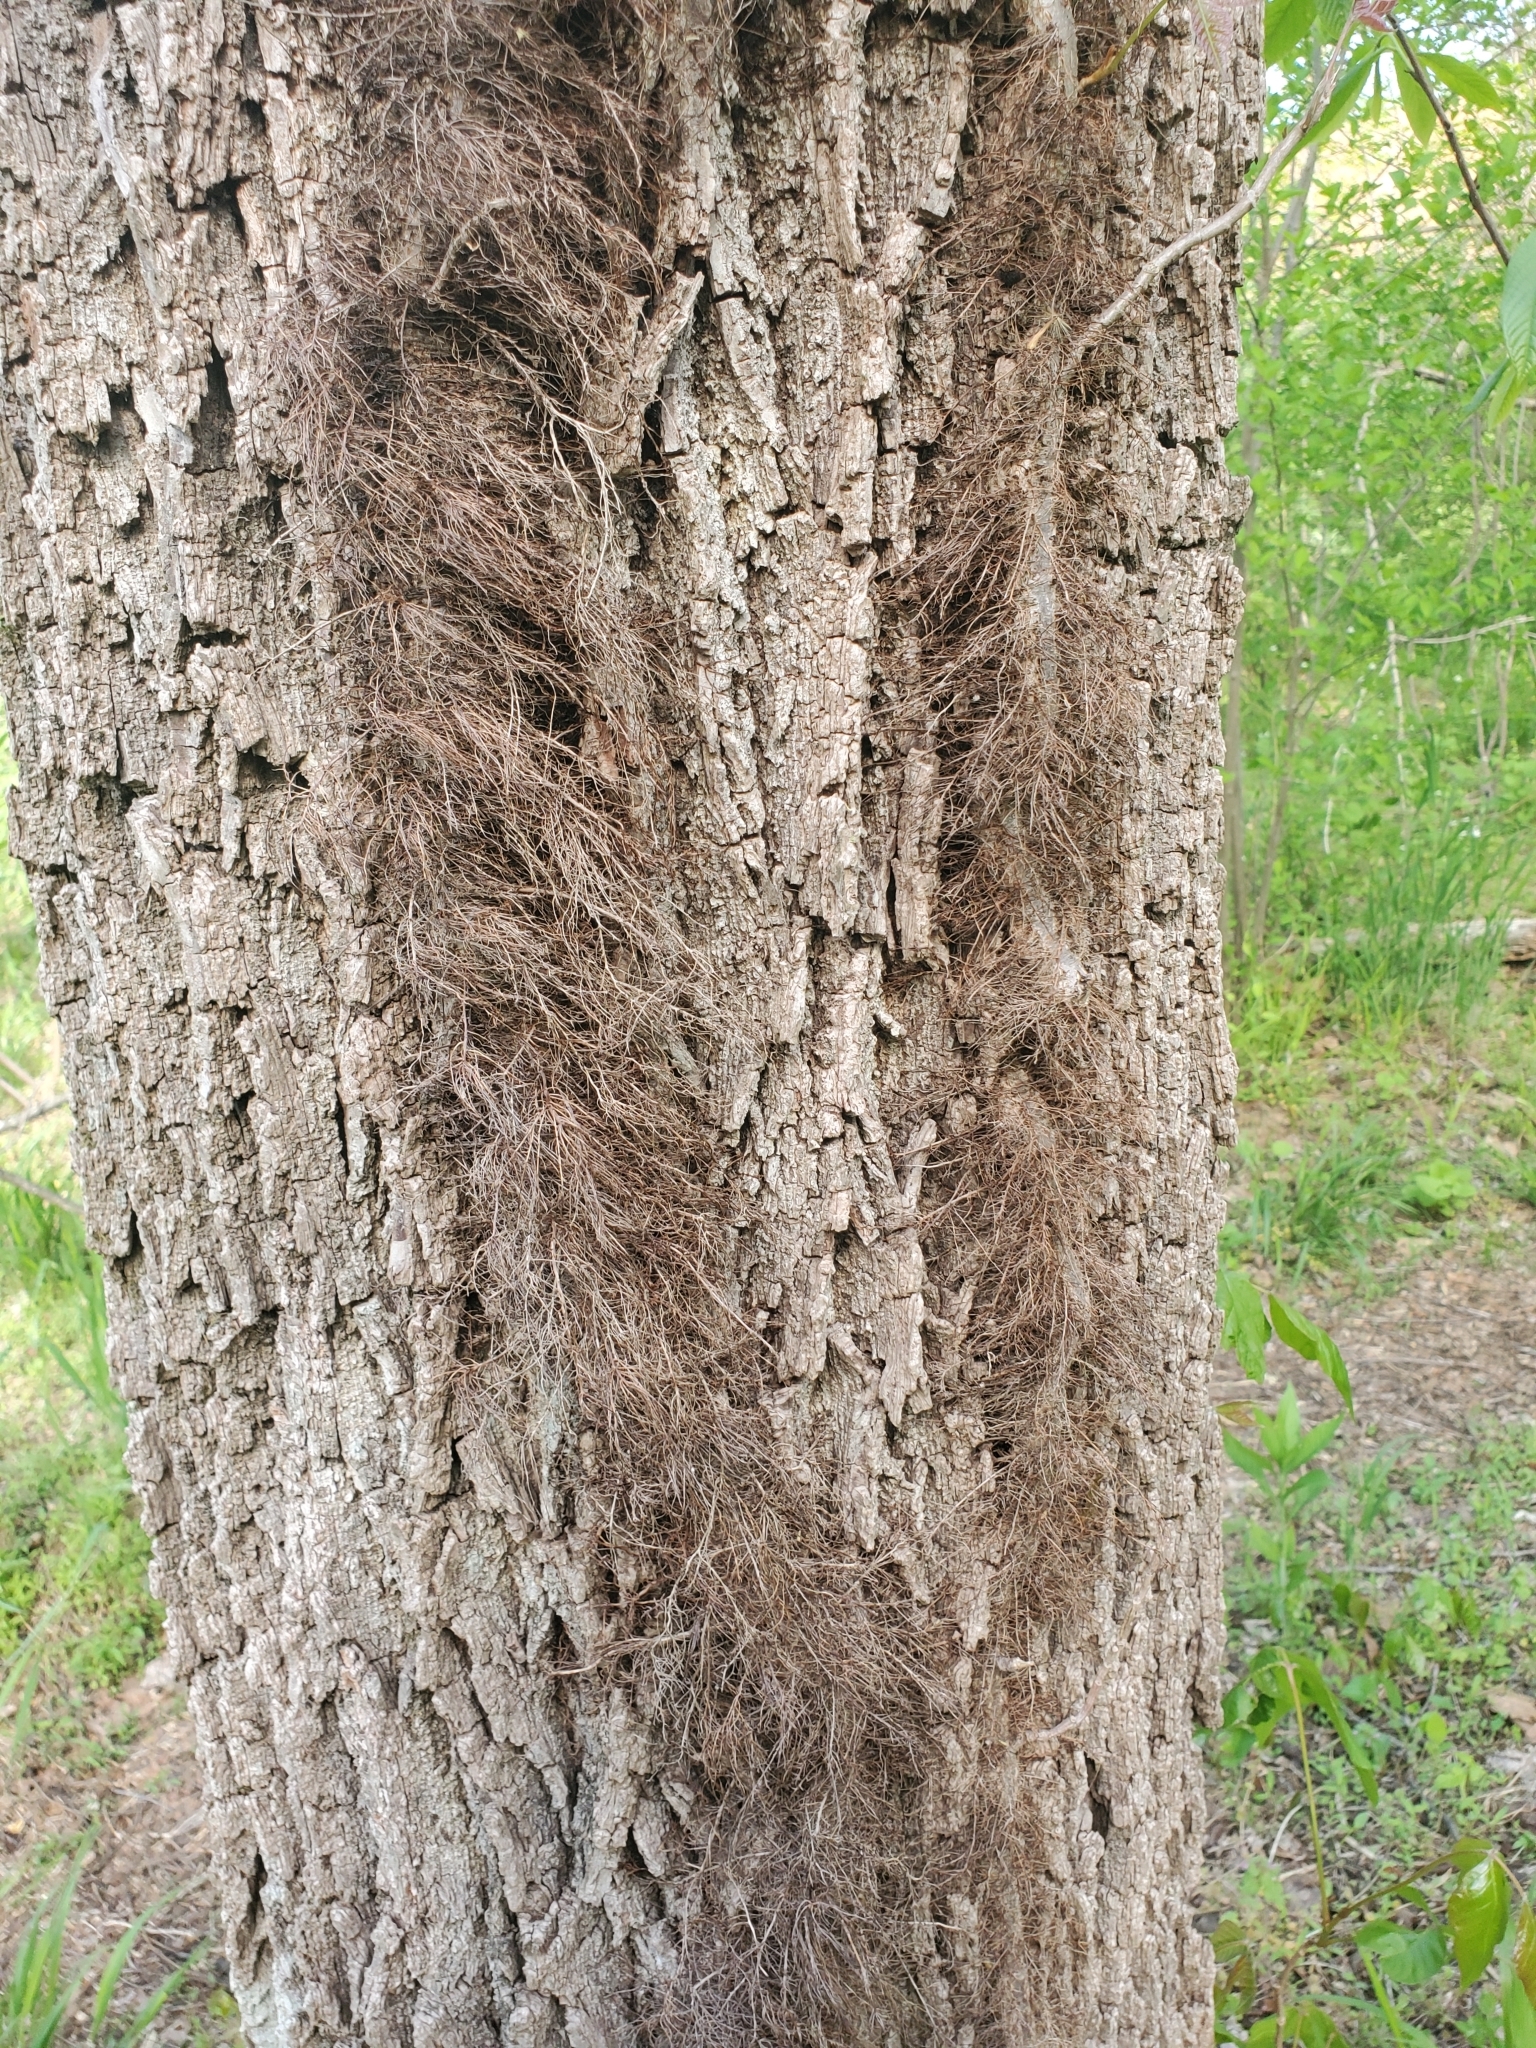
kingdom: Plantae
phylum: Tracheophyta
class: Magnoliopsida
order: Sapindales
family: Anacardiaceae
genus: Toxicodendron
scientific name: Toxicodendron radicans
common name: Poison ivy
